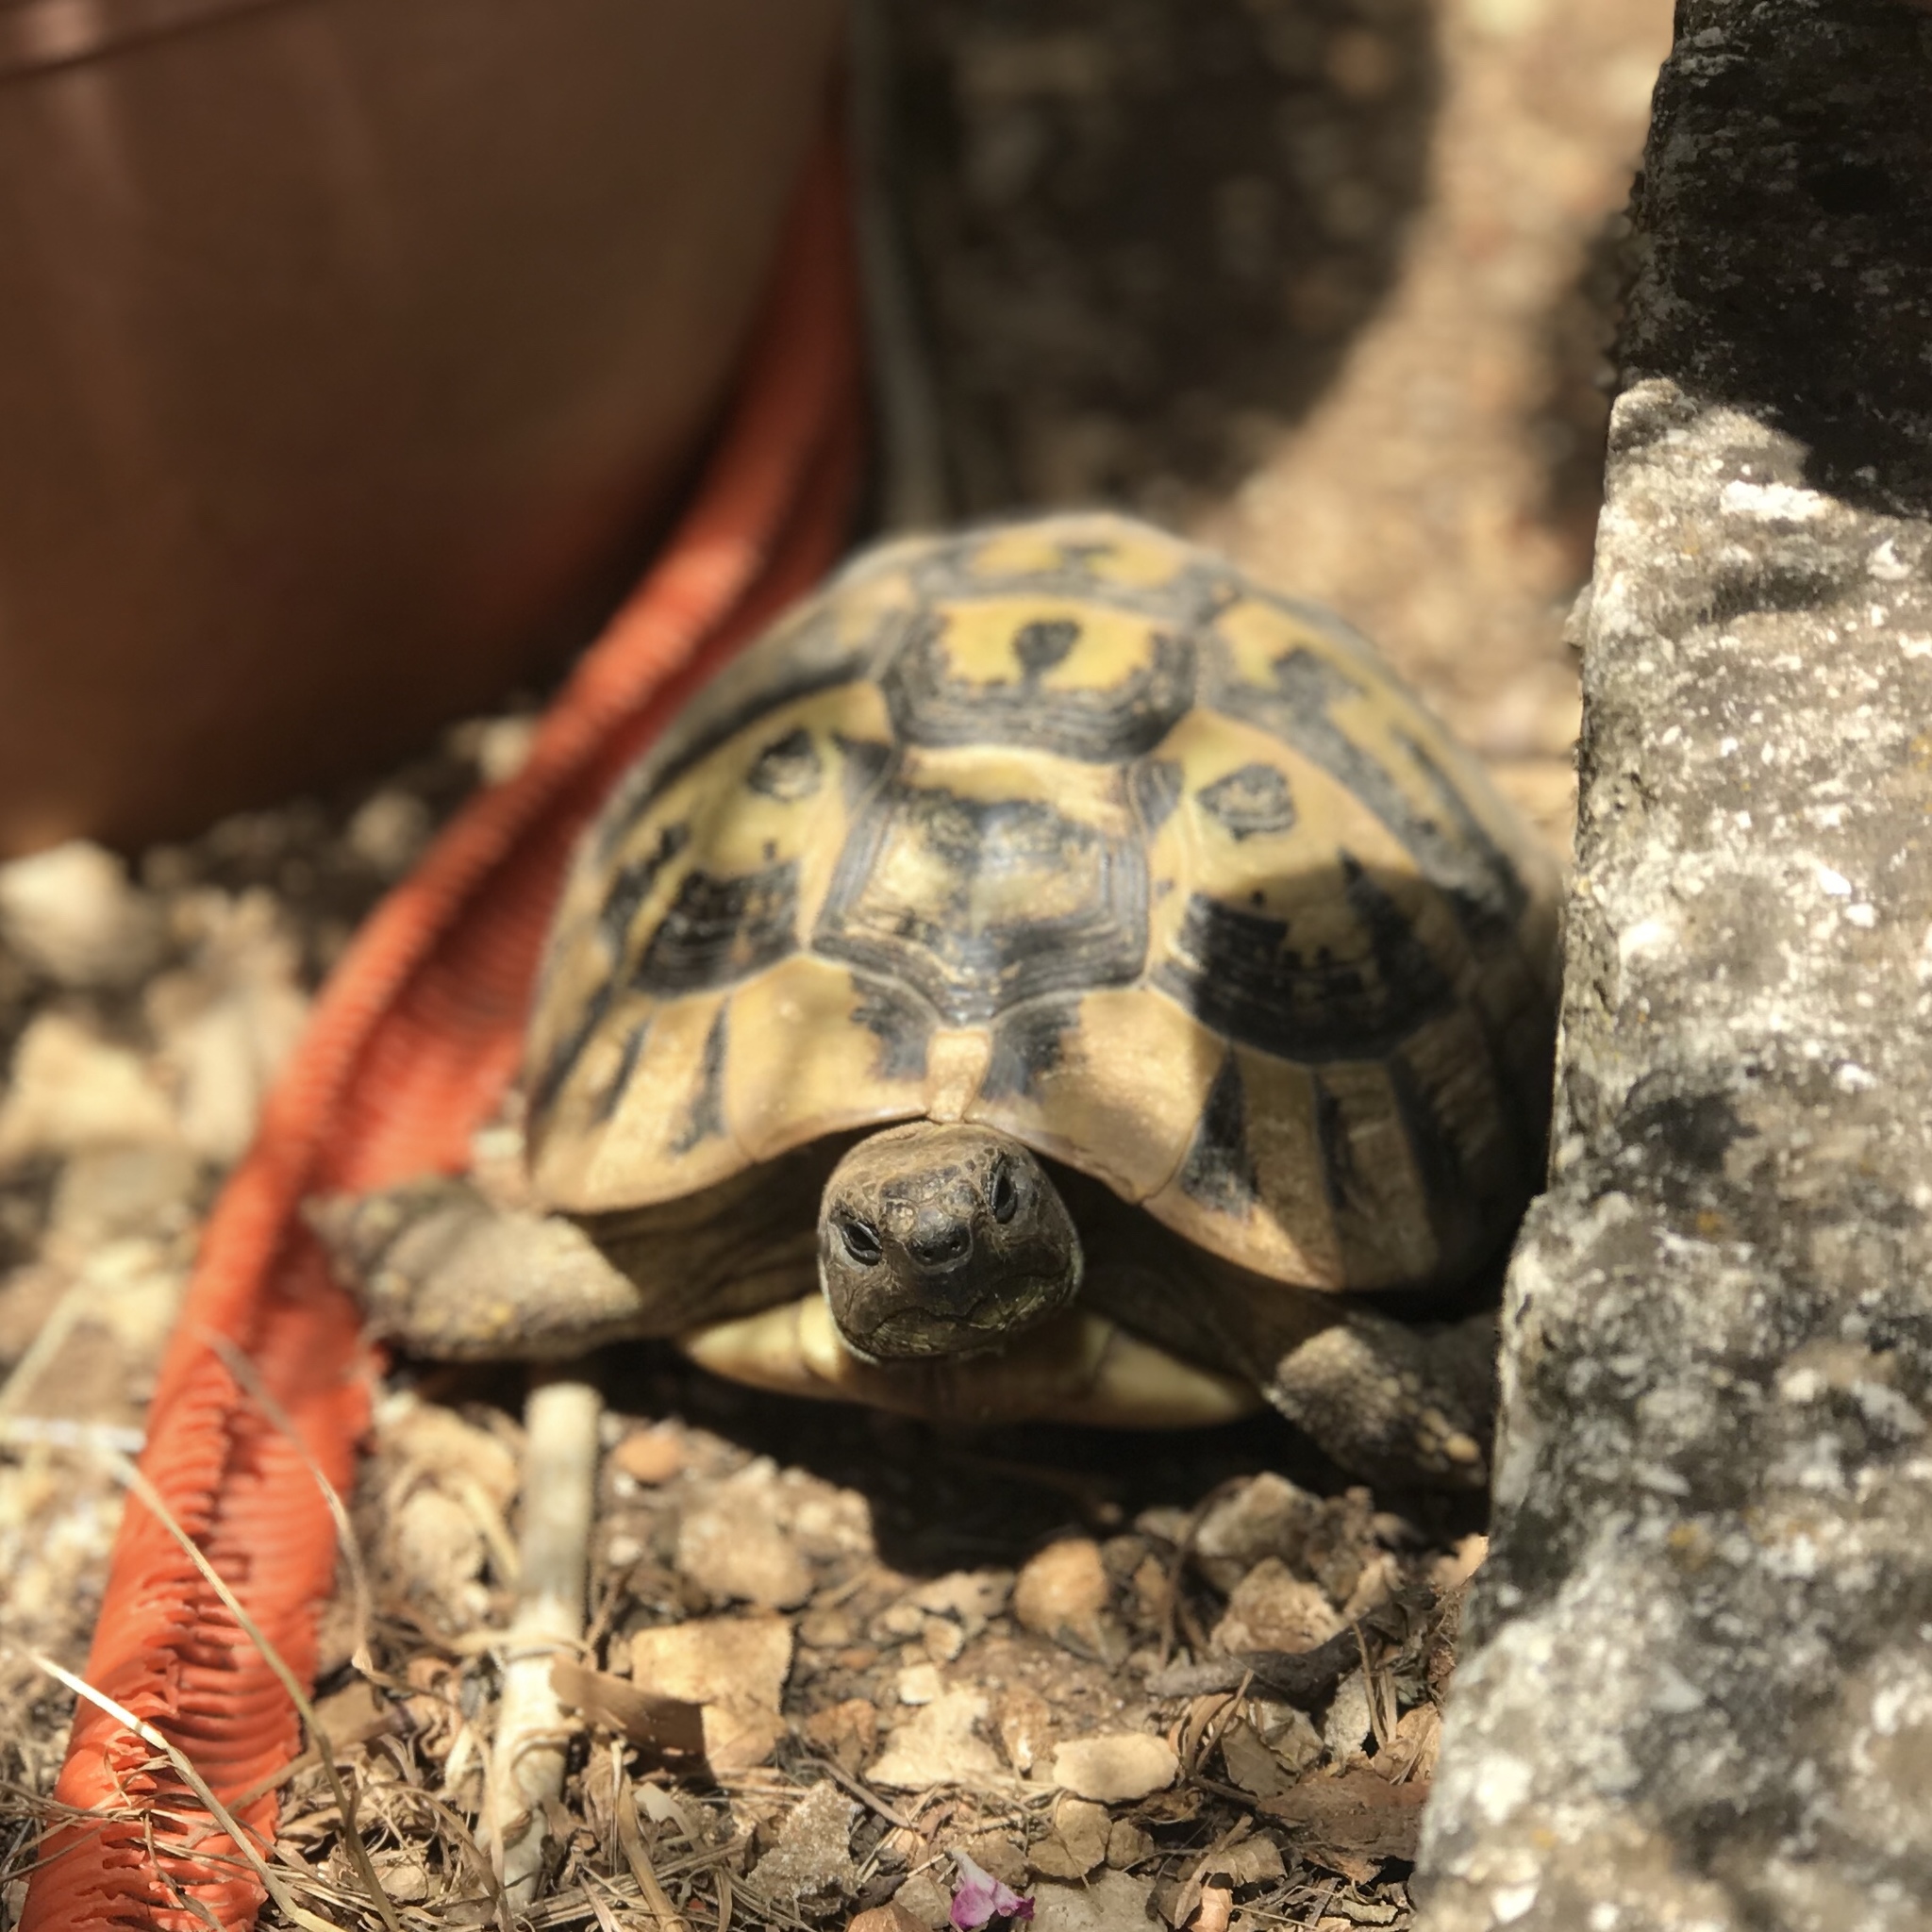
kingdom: Animalia
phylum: Chordata
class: Testudines
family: Testudinidae
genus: Testudo
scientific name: Testudo hermanni
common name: Hermann's tortoise
